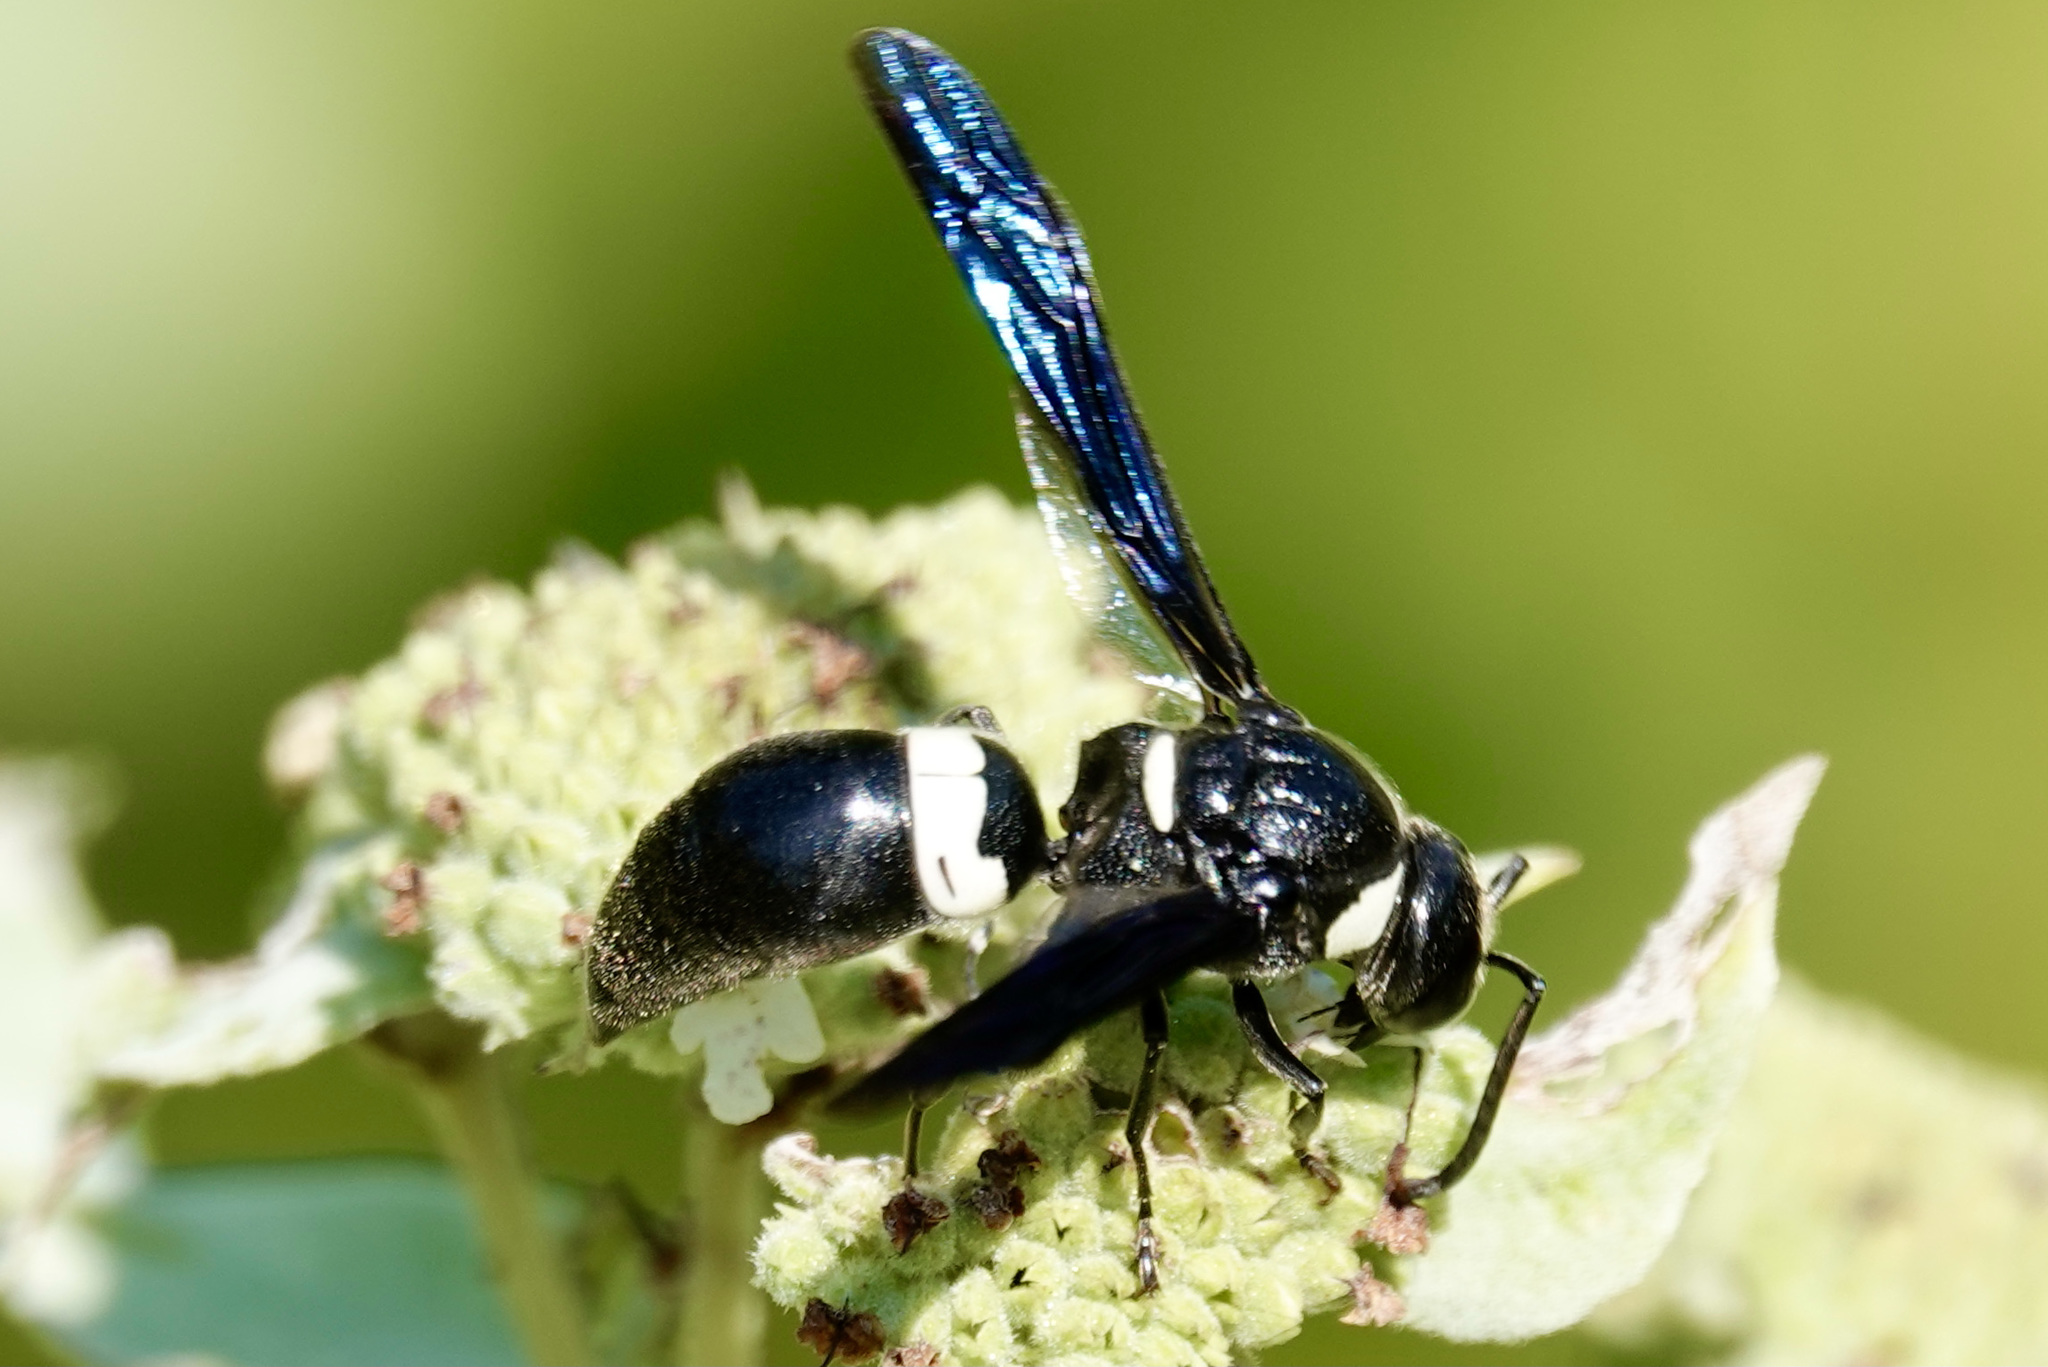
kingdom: Animalia
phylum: Arthropoda
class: Insecta
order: Hymenoptera
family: Eumenidae
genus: Monobia
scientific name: Monobia quadridens
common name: Four-toothed mason wasp
